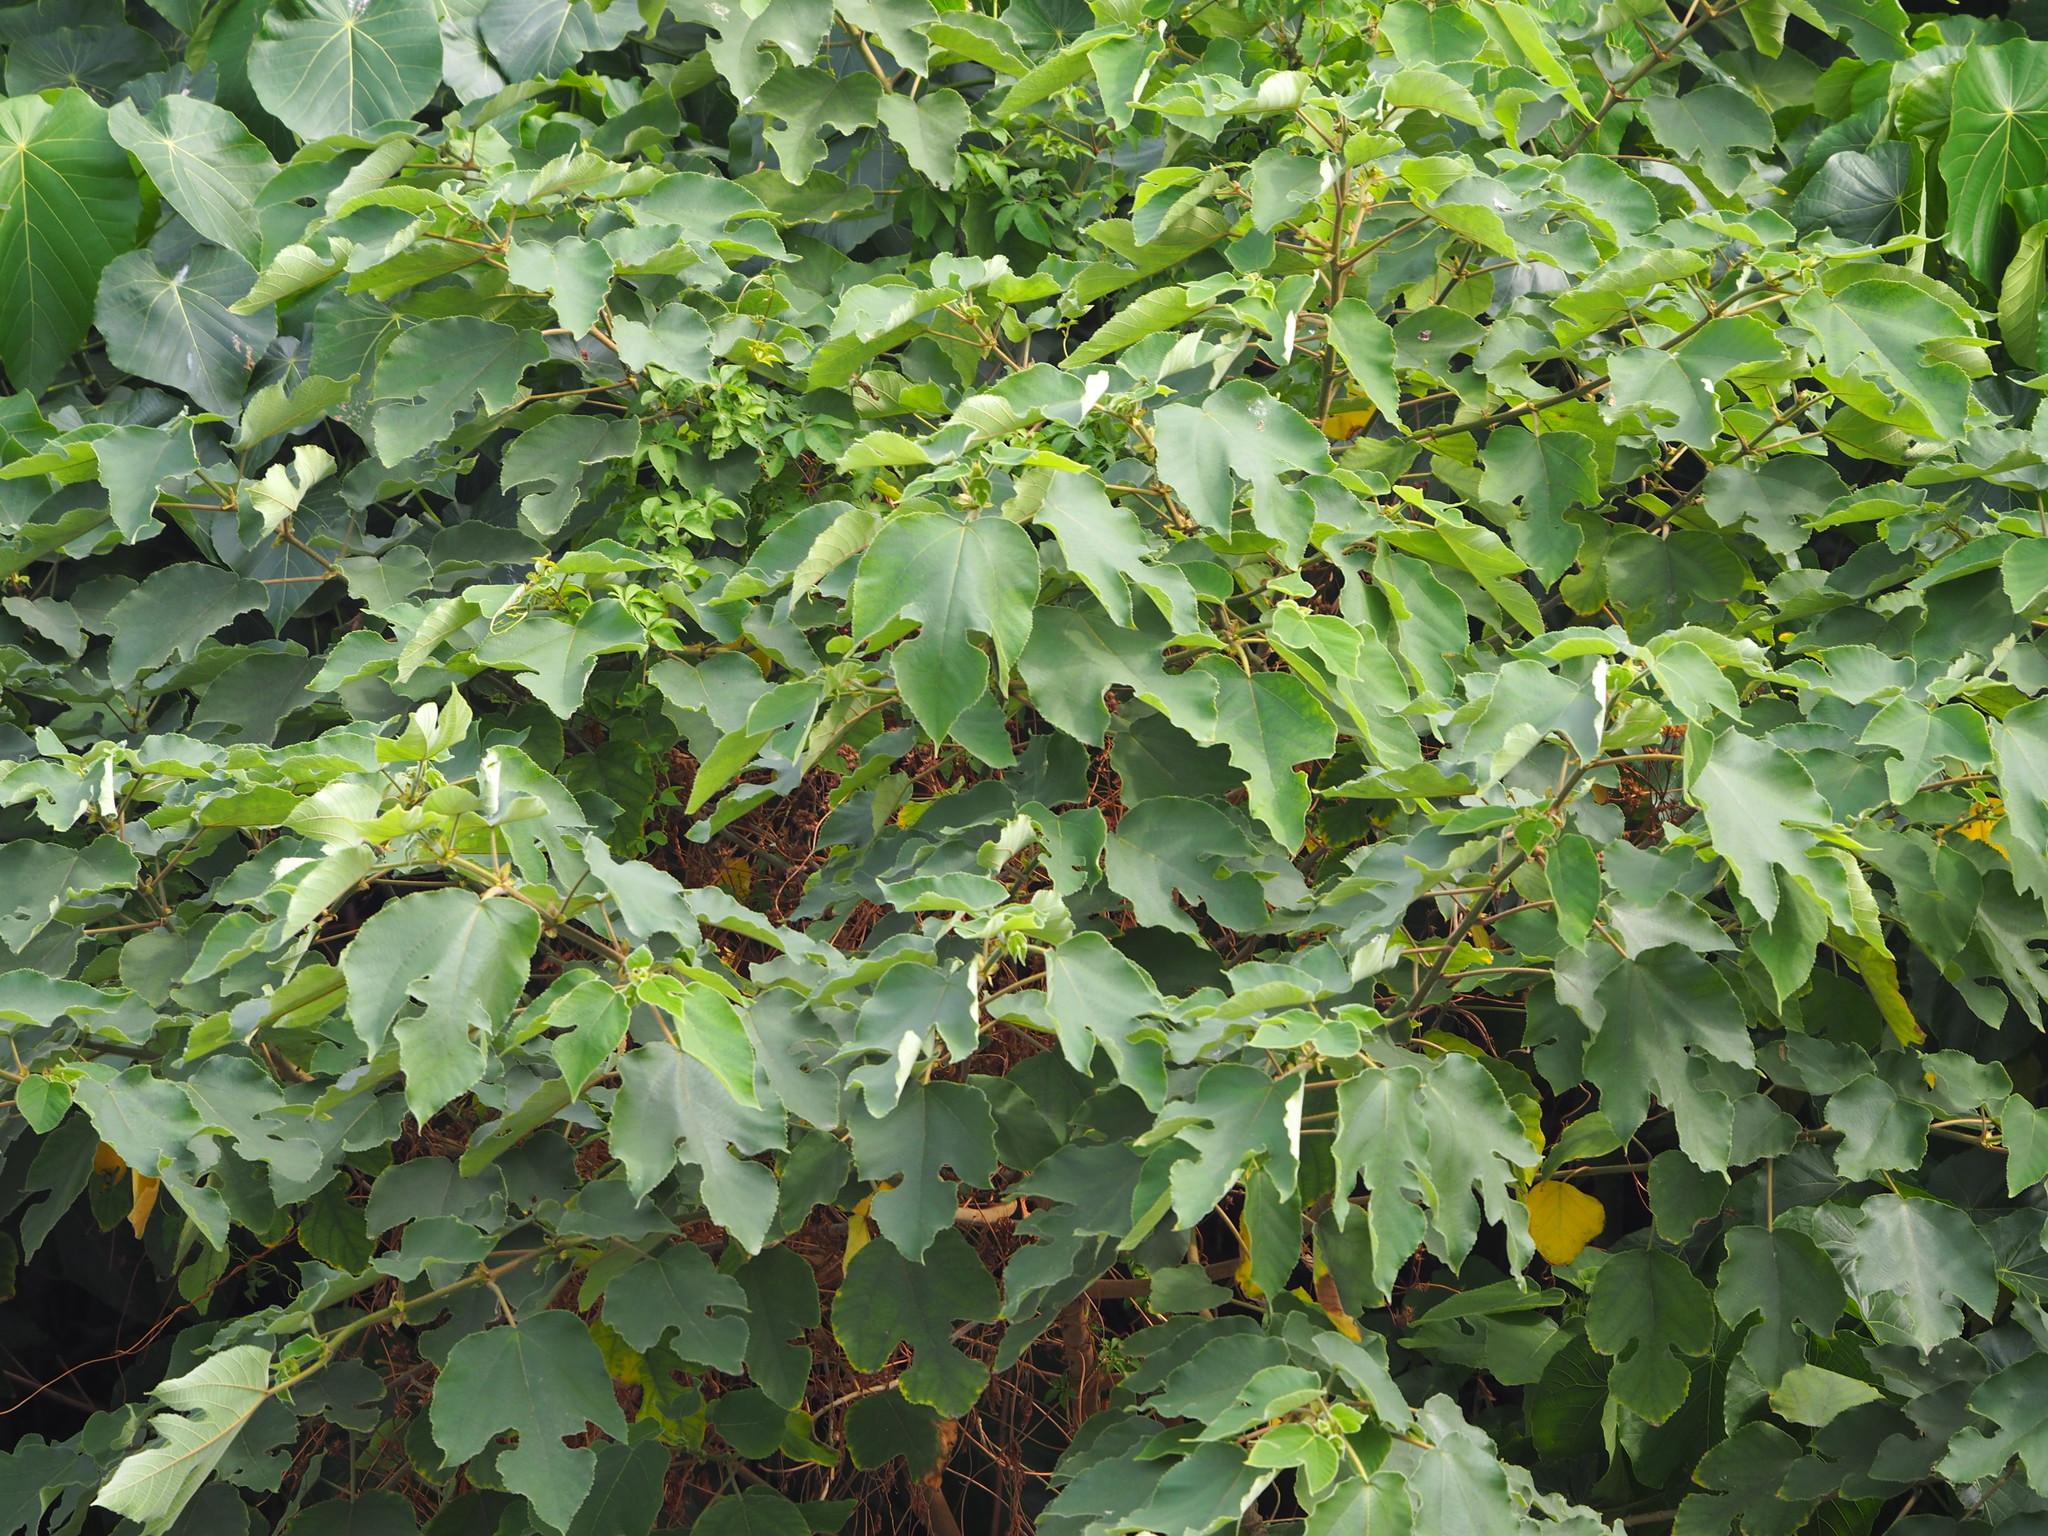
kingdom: Plantae
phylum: Tracheophyta
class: Magnoliopsida
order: Rosales
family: Moraceae
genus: Broussonetia
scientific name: Broussonetia papyrifera
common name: Paper mulberry
